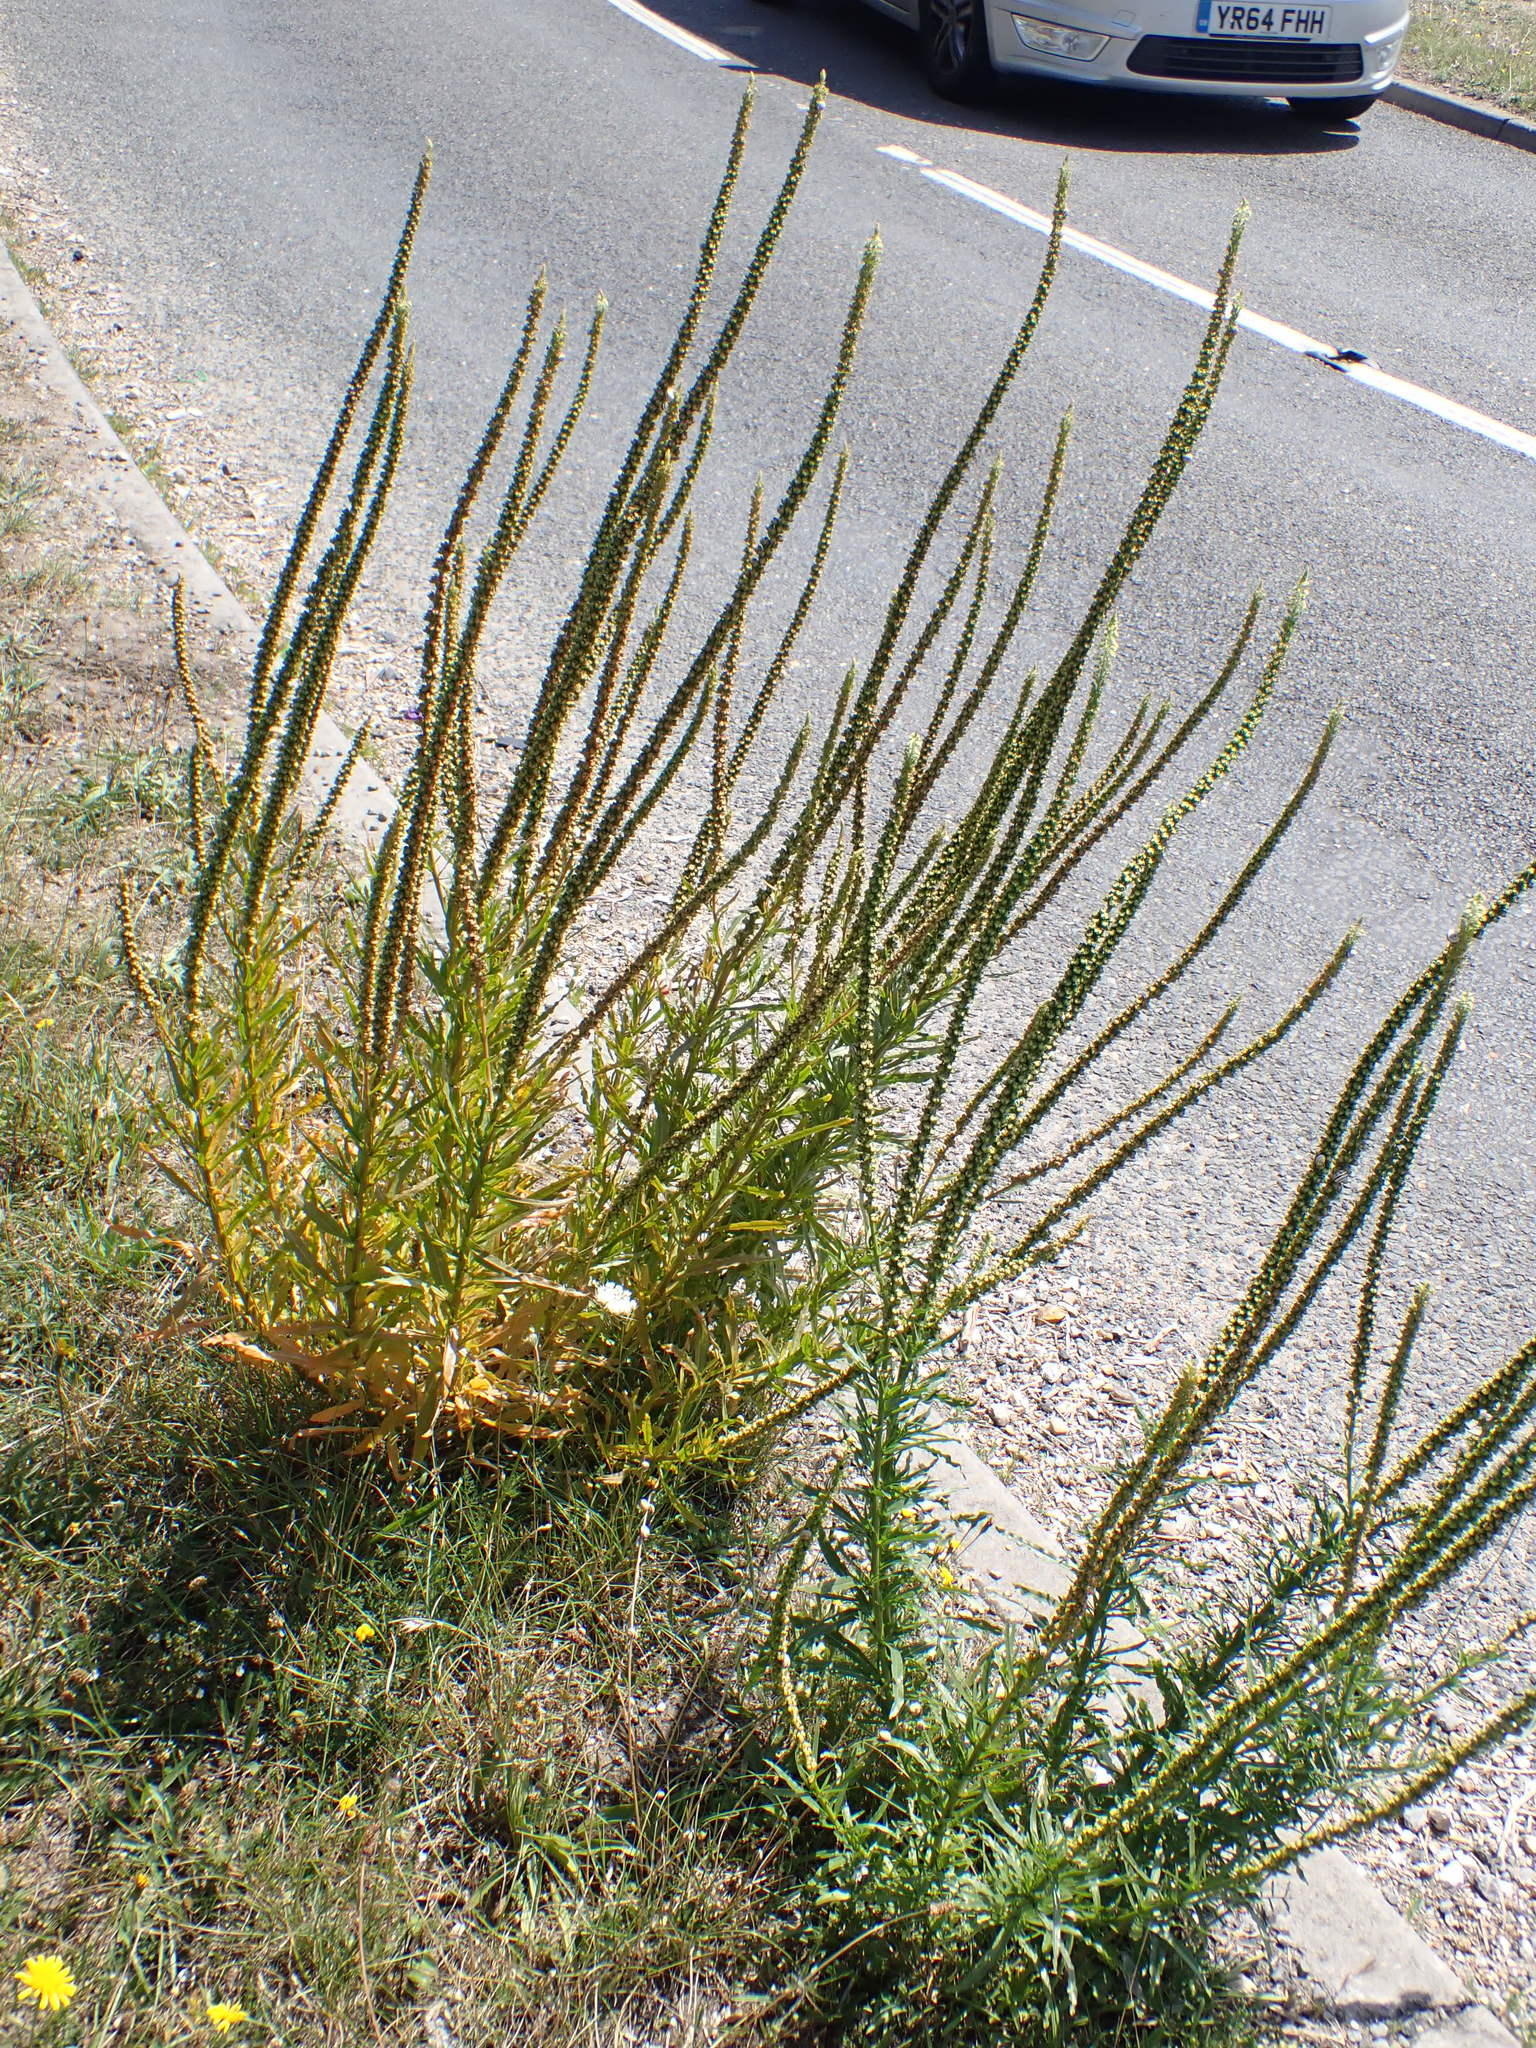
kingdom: Plantae
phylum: Tracheophyta
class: Magnoliopsida
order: Brassicales
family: Resedaceae
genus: Reseda
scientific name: Reseda luteola
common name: Weld
